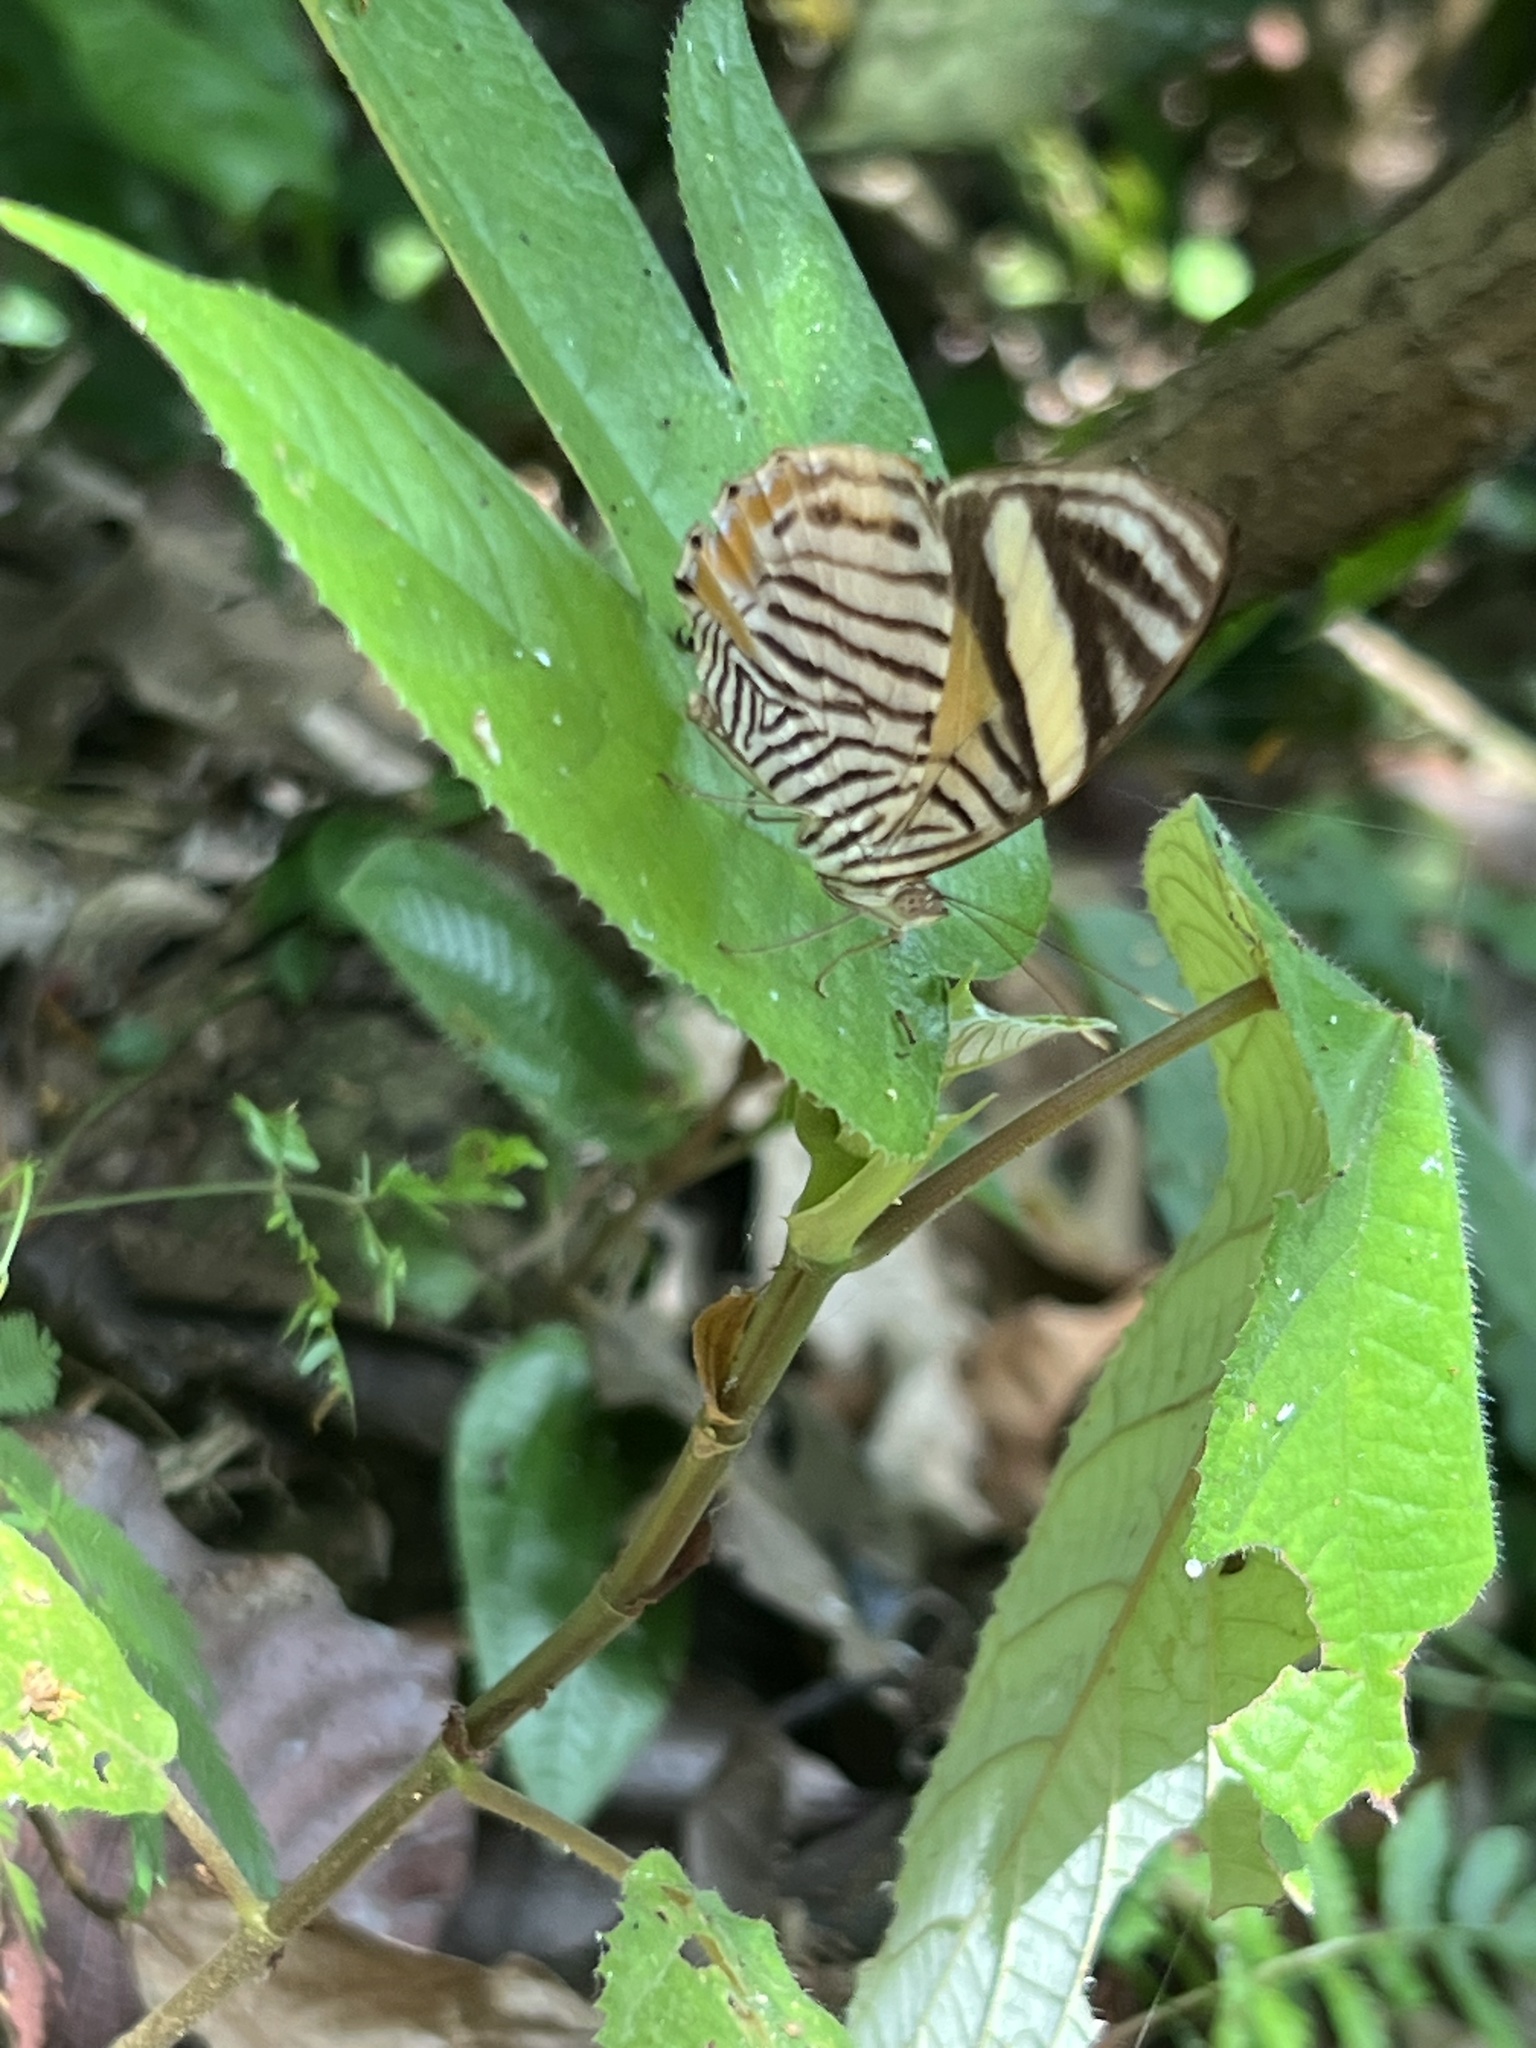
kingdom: Animalia
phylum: Arthropoda
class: Insecta
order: Lepidoptera
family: Nymphalidae
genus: Callizona
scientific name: Callizona acesta
